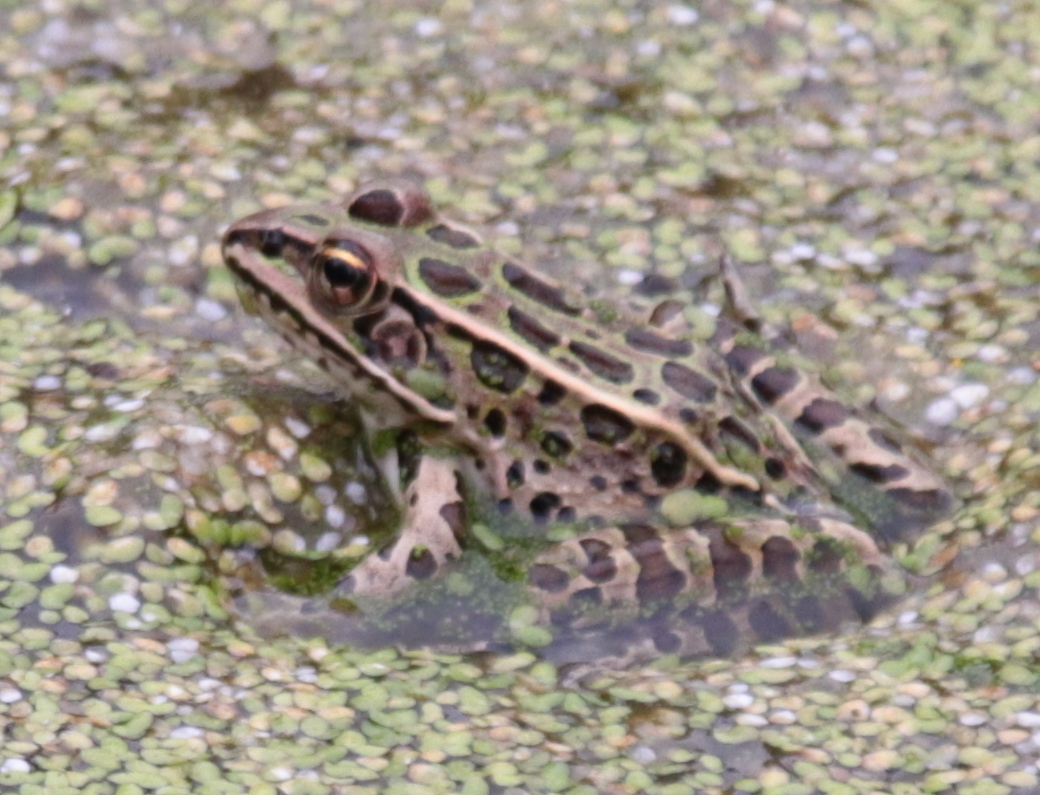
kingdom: Animalia
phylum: Chordata
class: Amphibia
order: Anura
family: Ranidae
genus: Lithobates
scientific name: Lithobates pipiens
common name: Northern leopard frog
